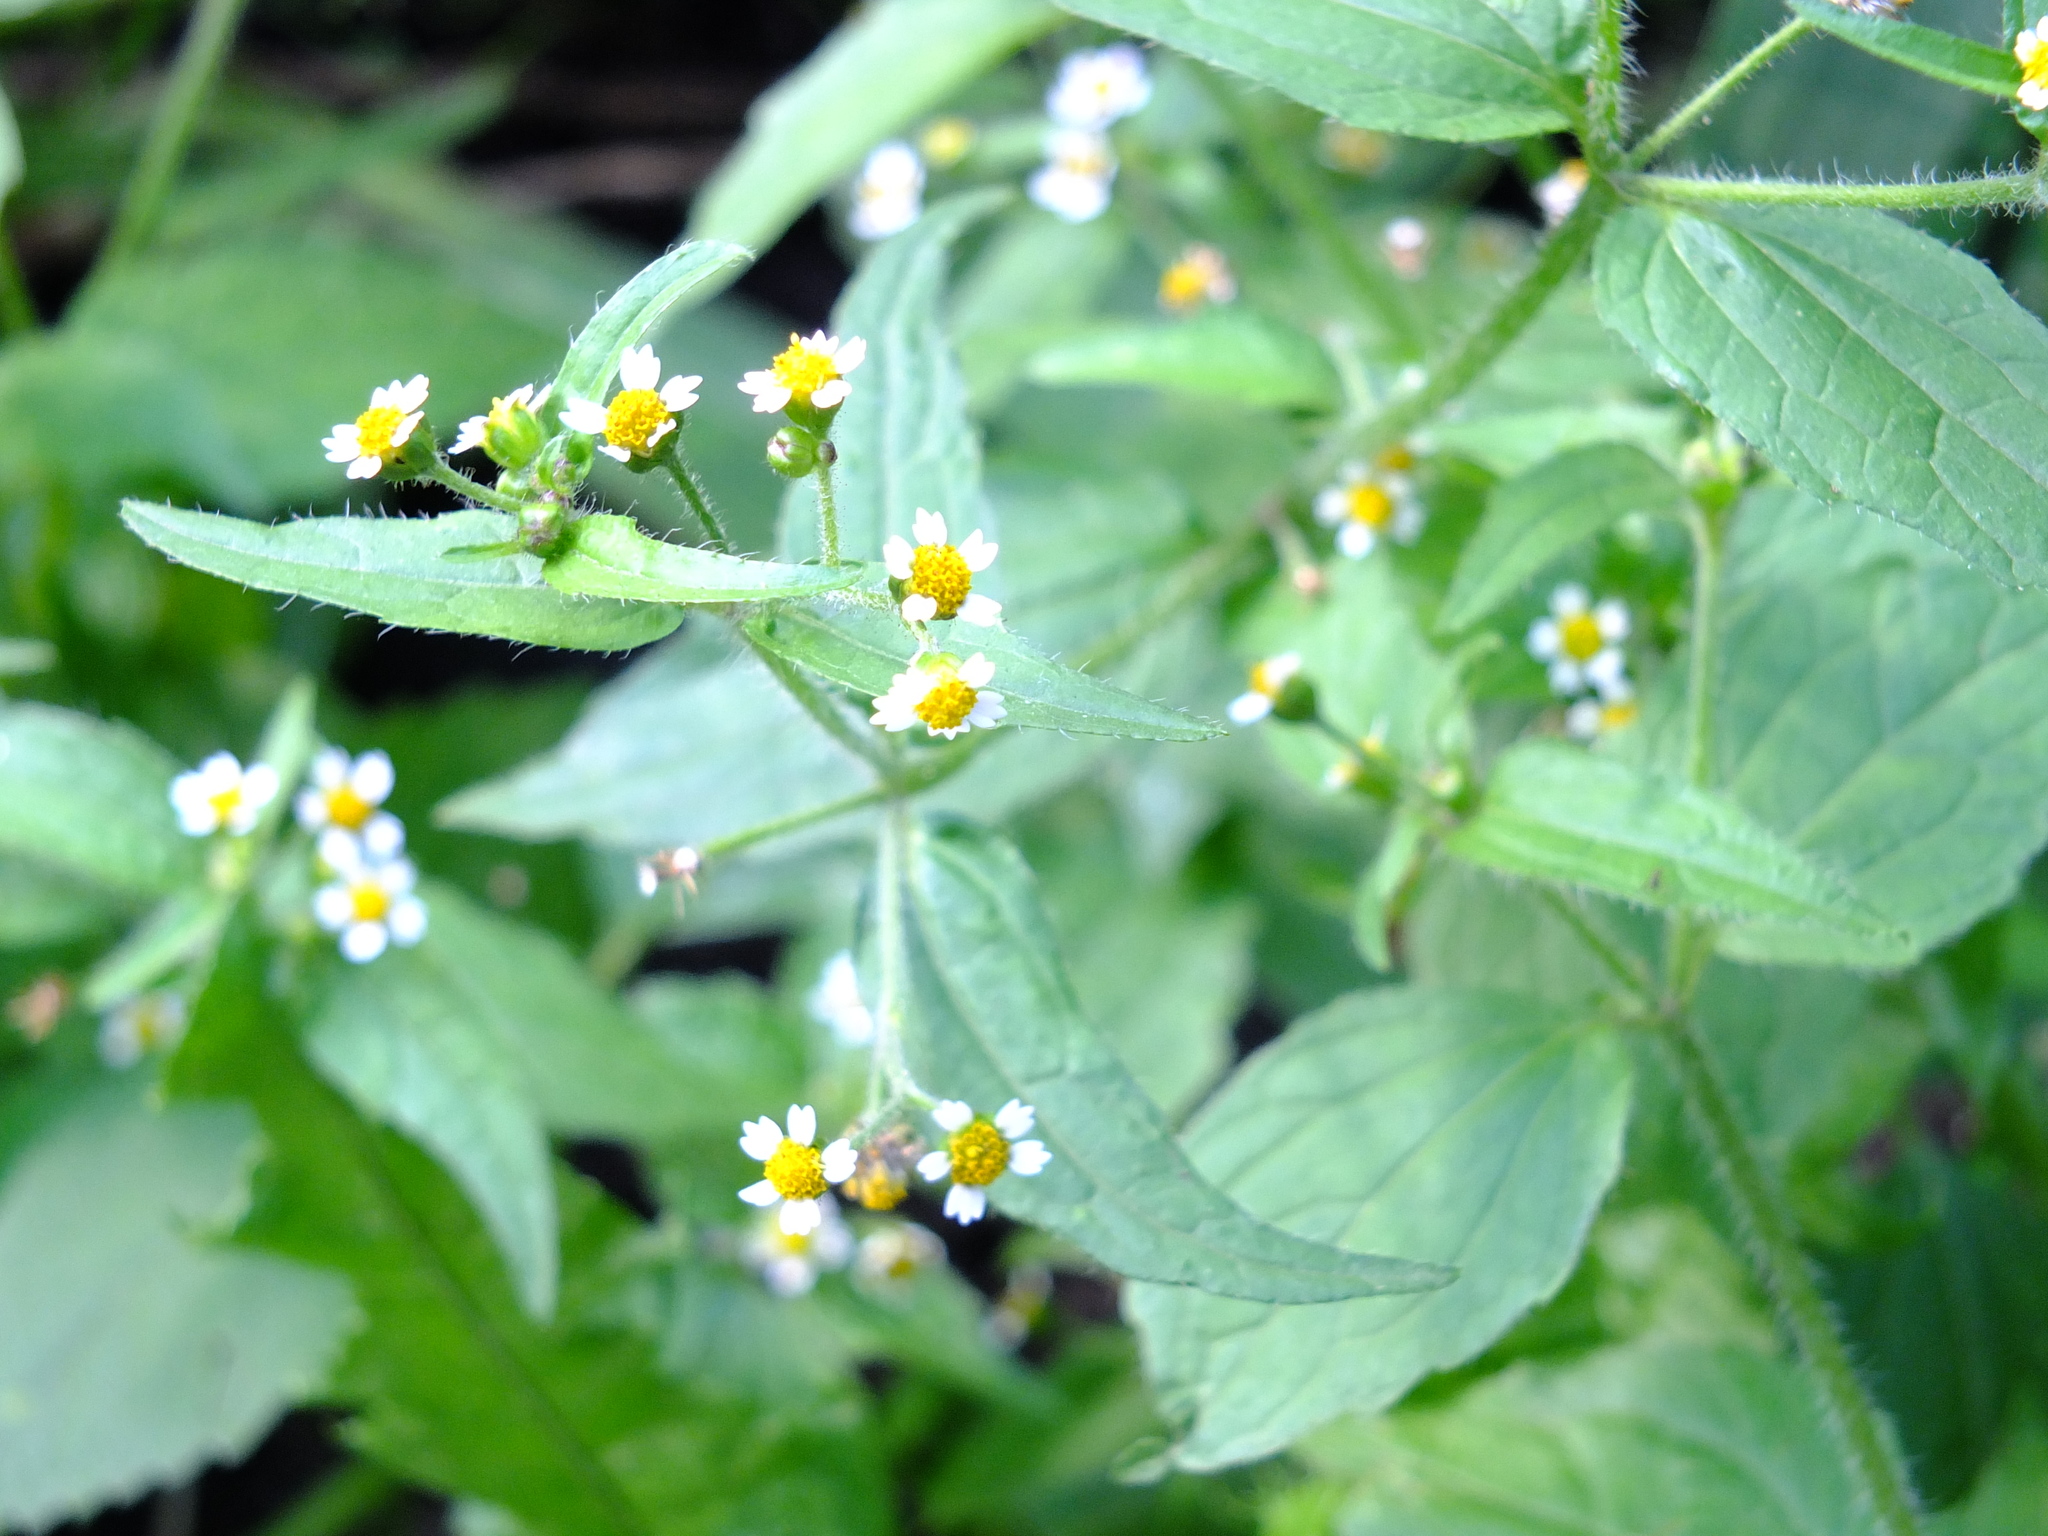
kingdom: Plantae
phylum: Tracheophyta
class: Magnoliopsida
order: Asterales
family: Asteraceae
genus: Galinsoga
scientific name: Galinsoga quadriradiata
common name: Shaggy soldier
